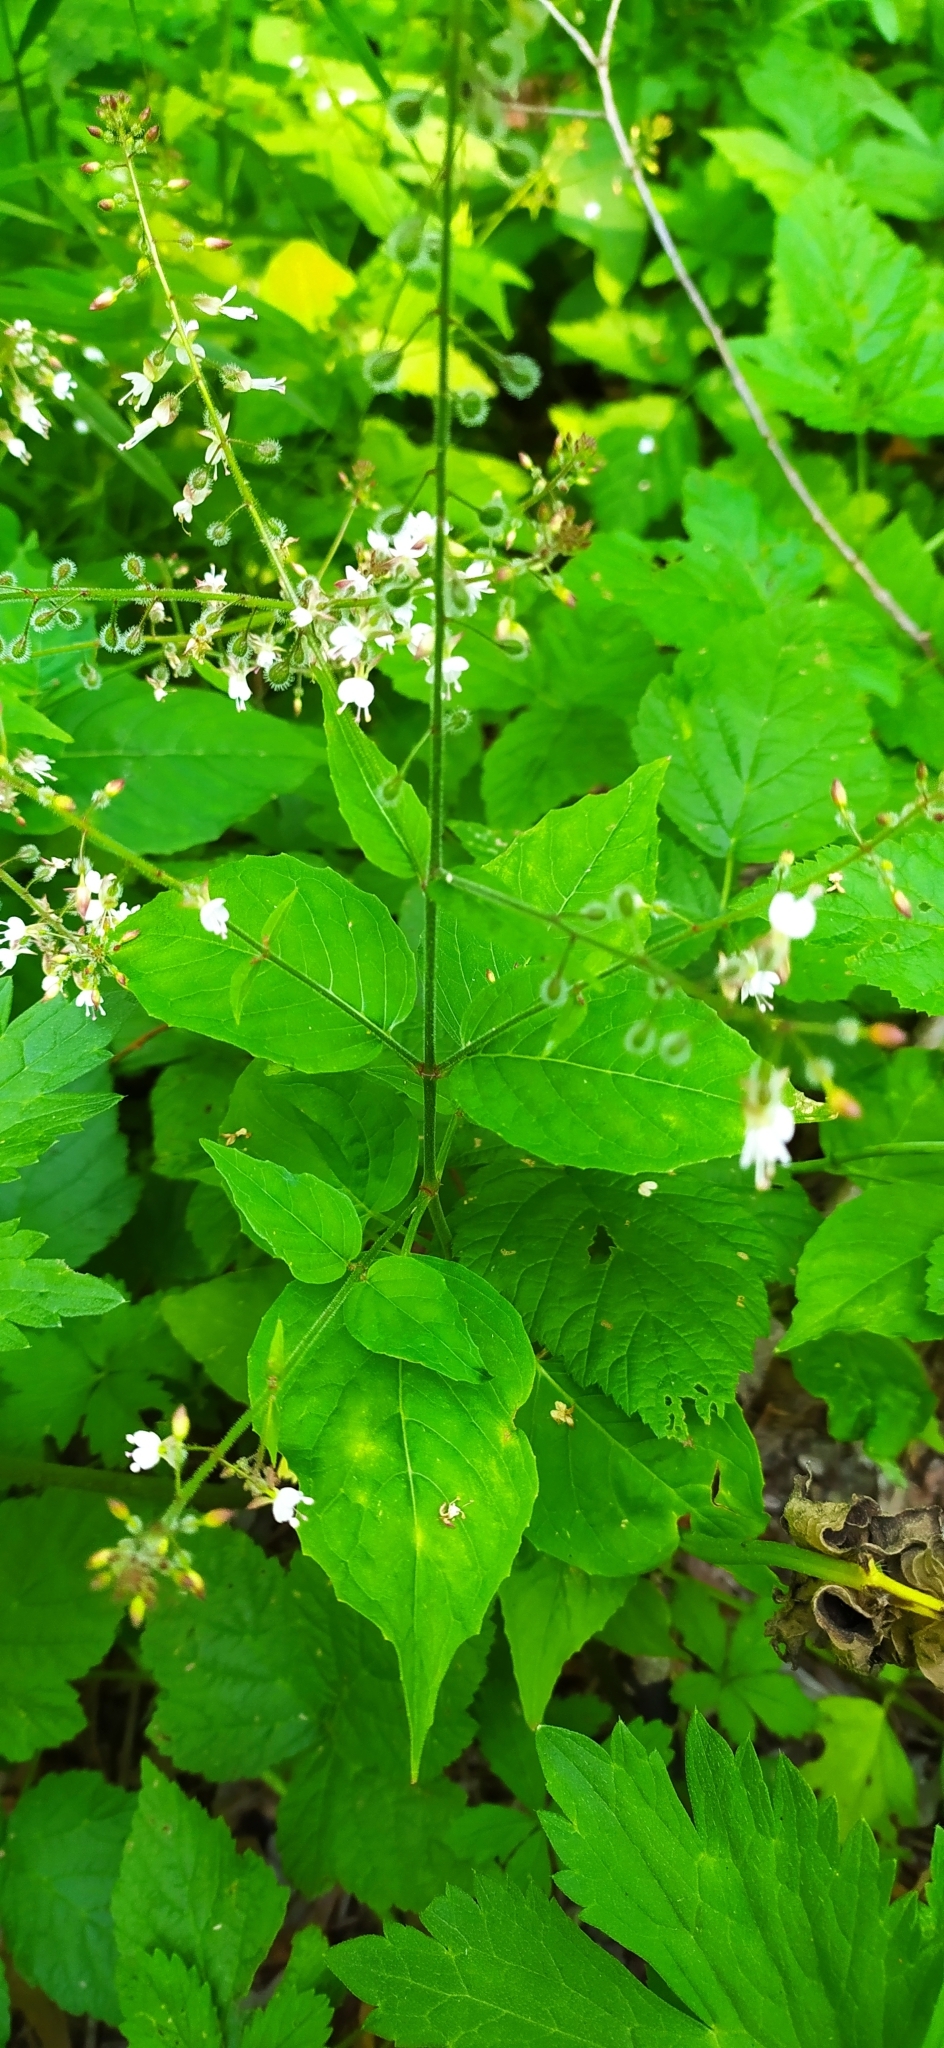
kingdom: Plantae
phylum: Tracheophyta
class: Magnoliopsida
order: Myrtales
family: Onagraceae
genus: Circaea
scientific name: Circaea lutetiana
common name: Enchanter's-nightshade
